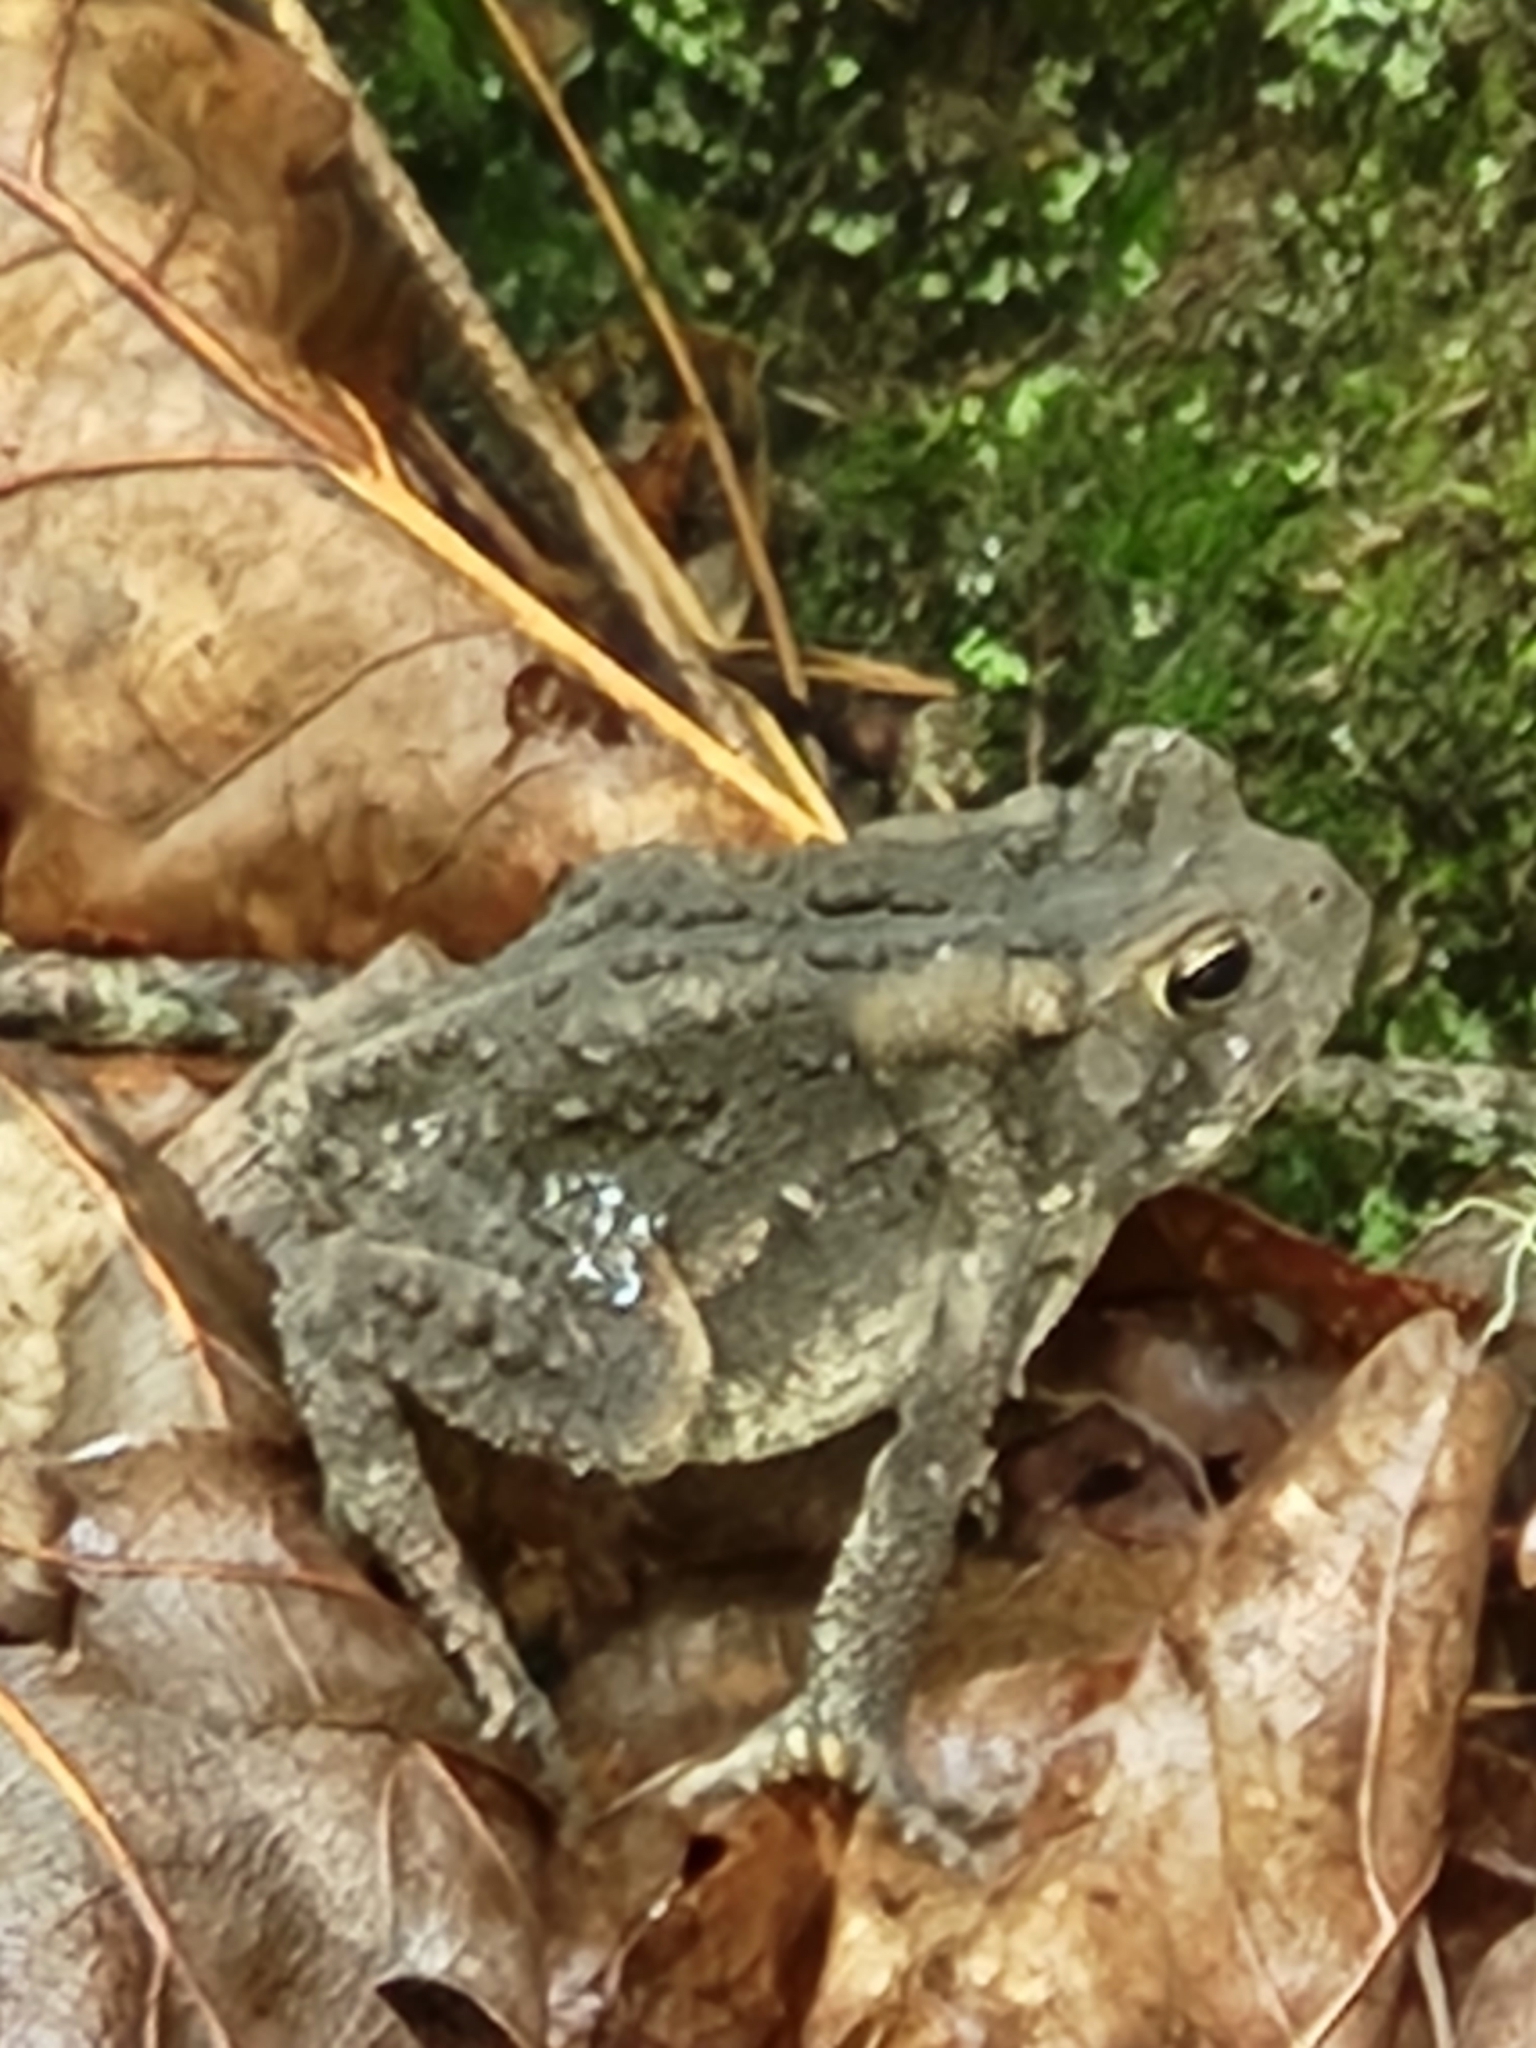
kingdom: Animalia
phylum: Chordata
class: Amphibia
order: Anura
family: Bufonidae
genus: Anaxyrus
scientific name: Anaxyrus americanus
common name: American toad
